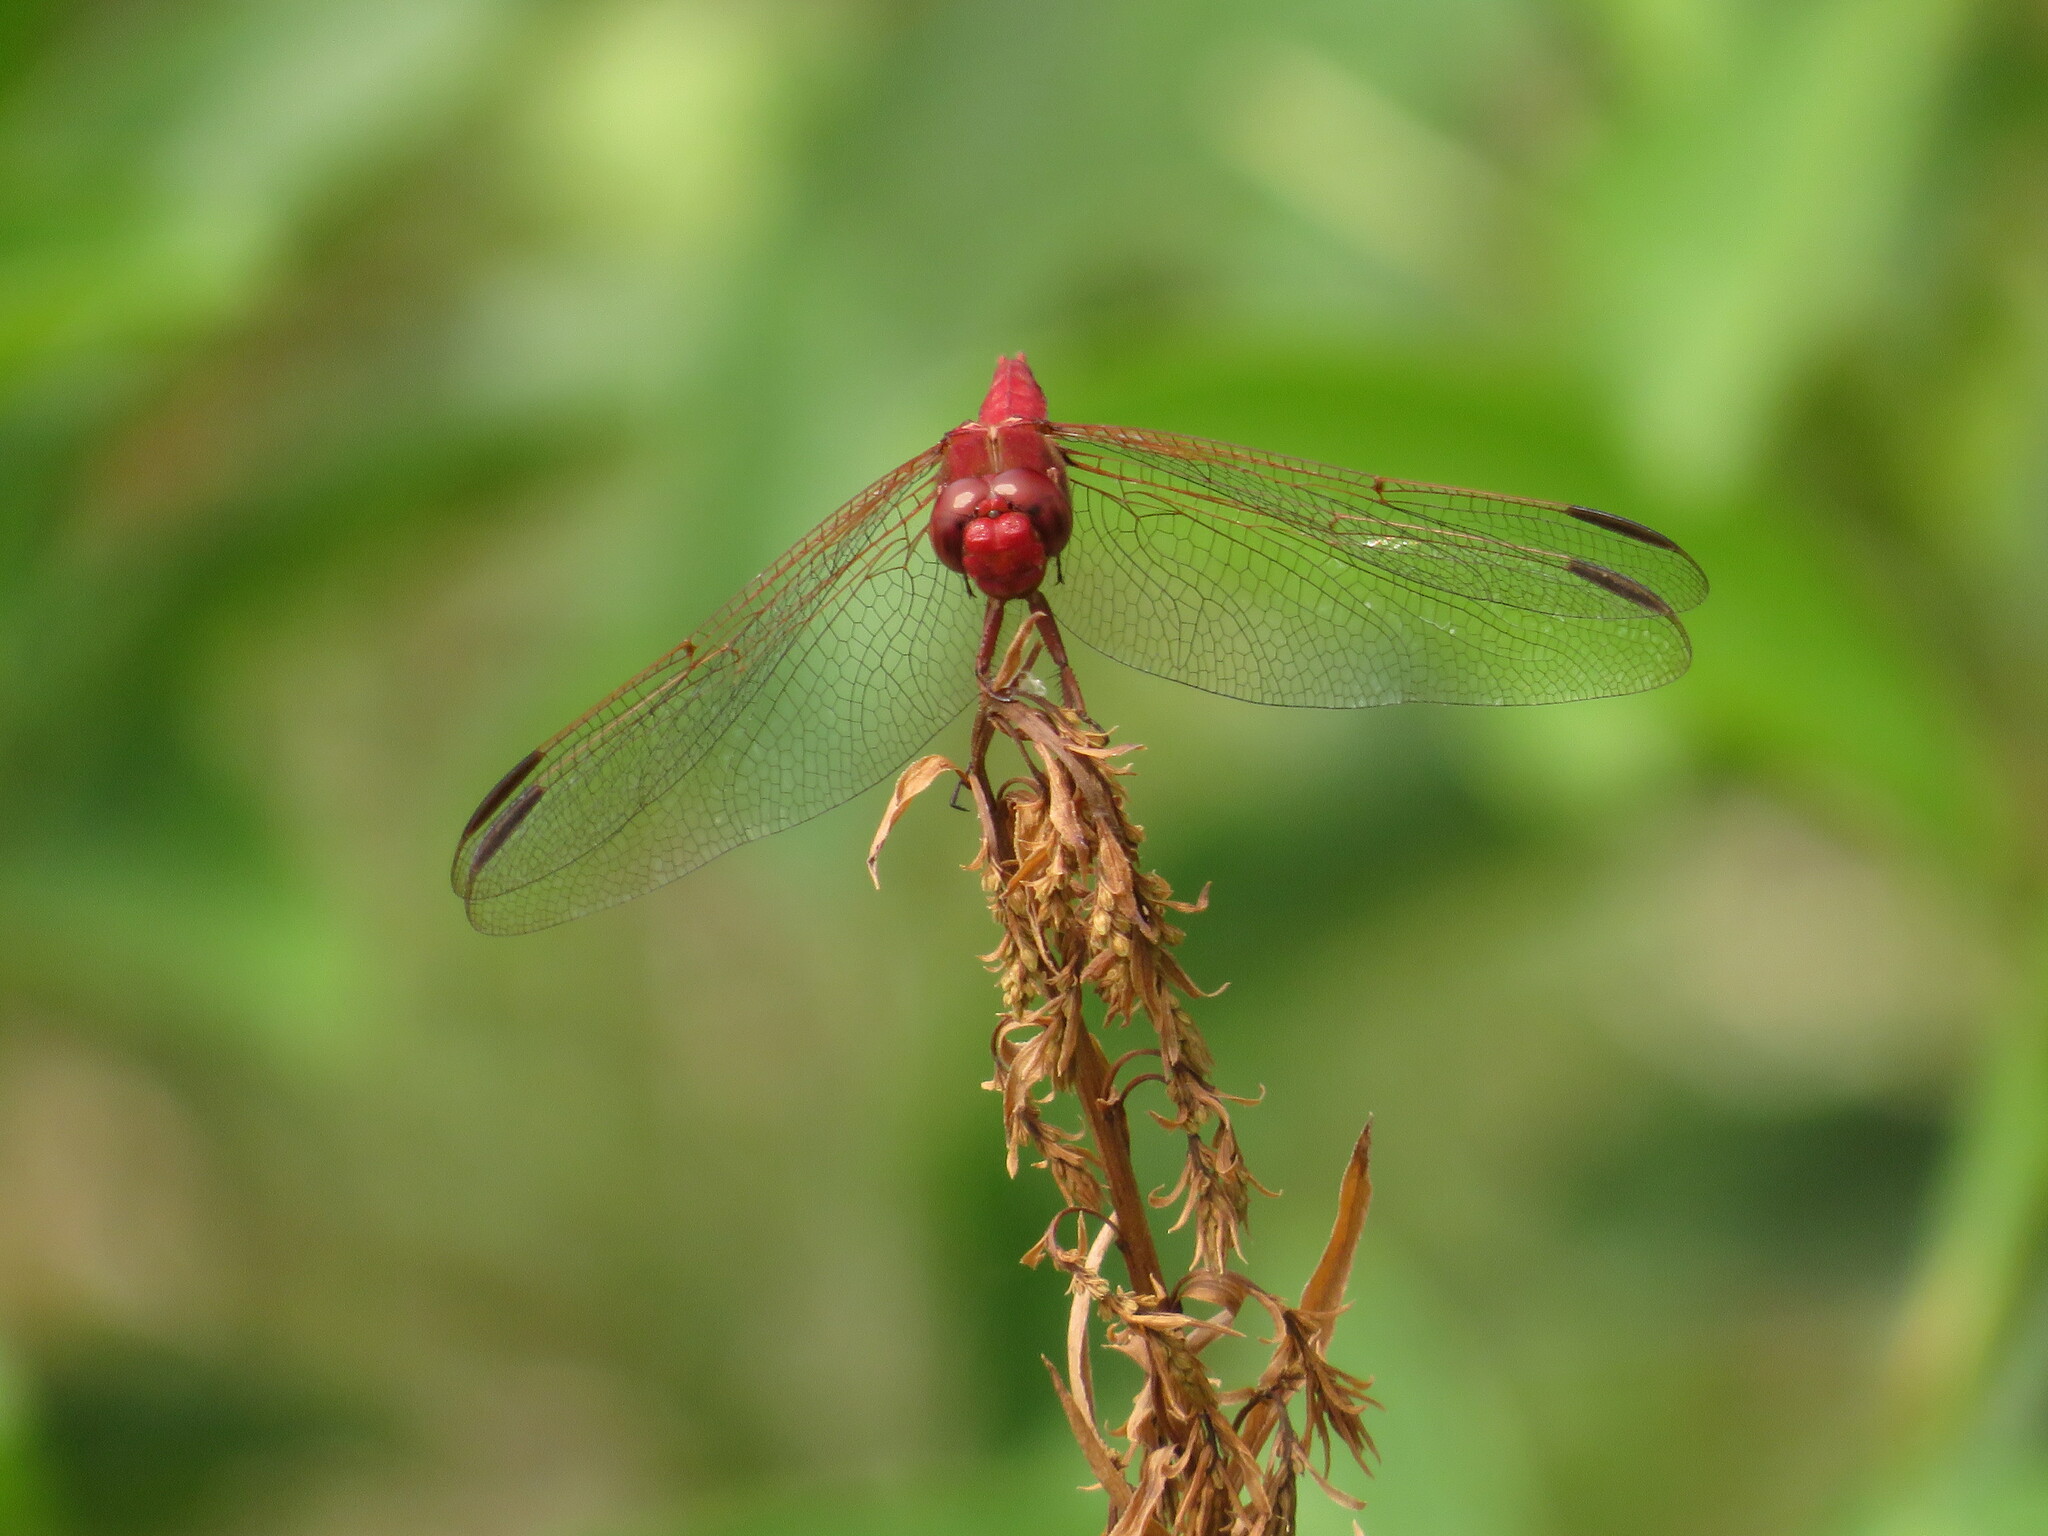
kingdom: Animalia
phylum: Arthropoda
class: Insecta
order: Odonata
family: Libellulidae
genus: Orthemis
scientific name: Orthemis nodiplaga
